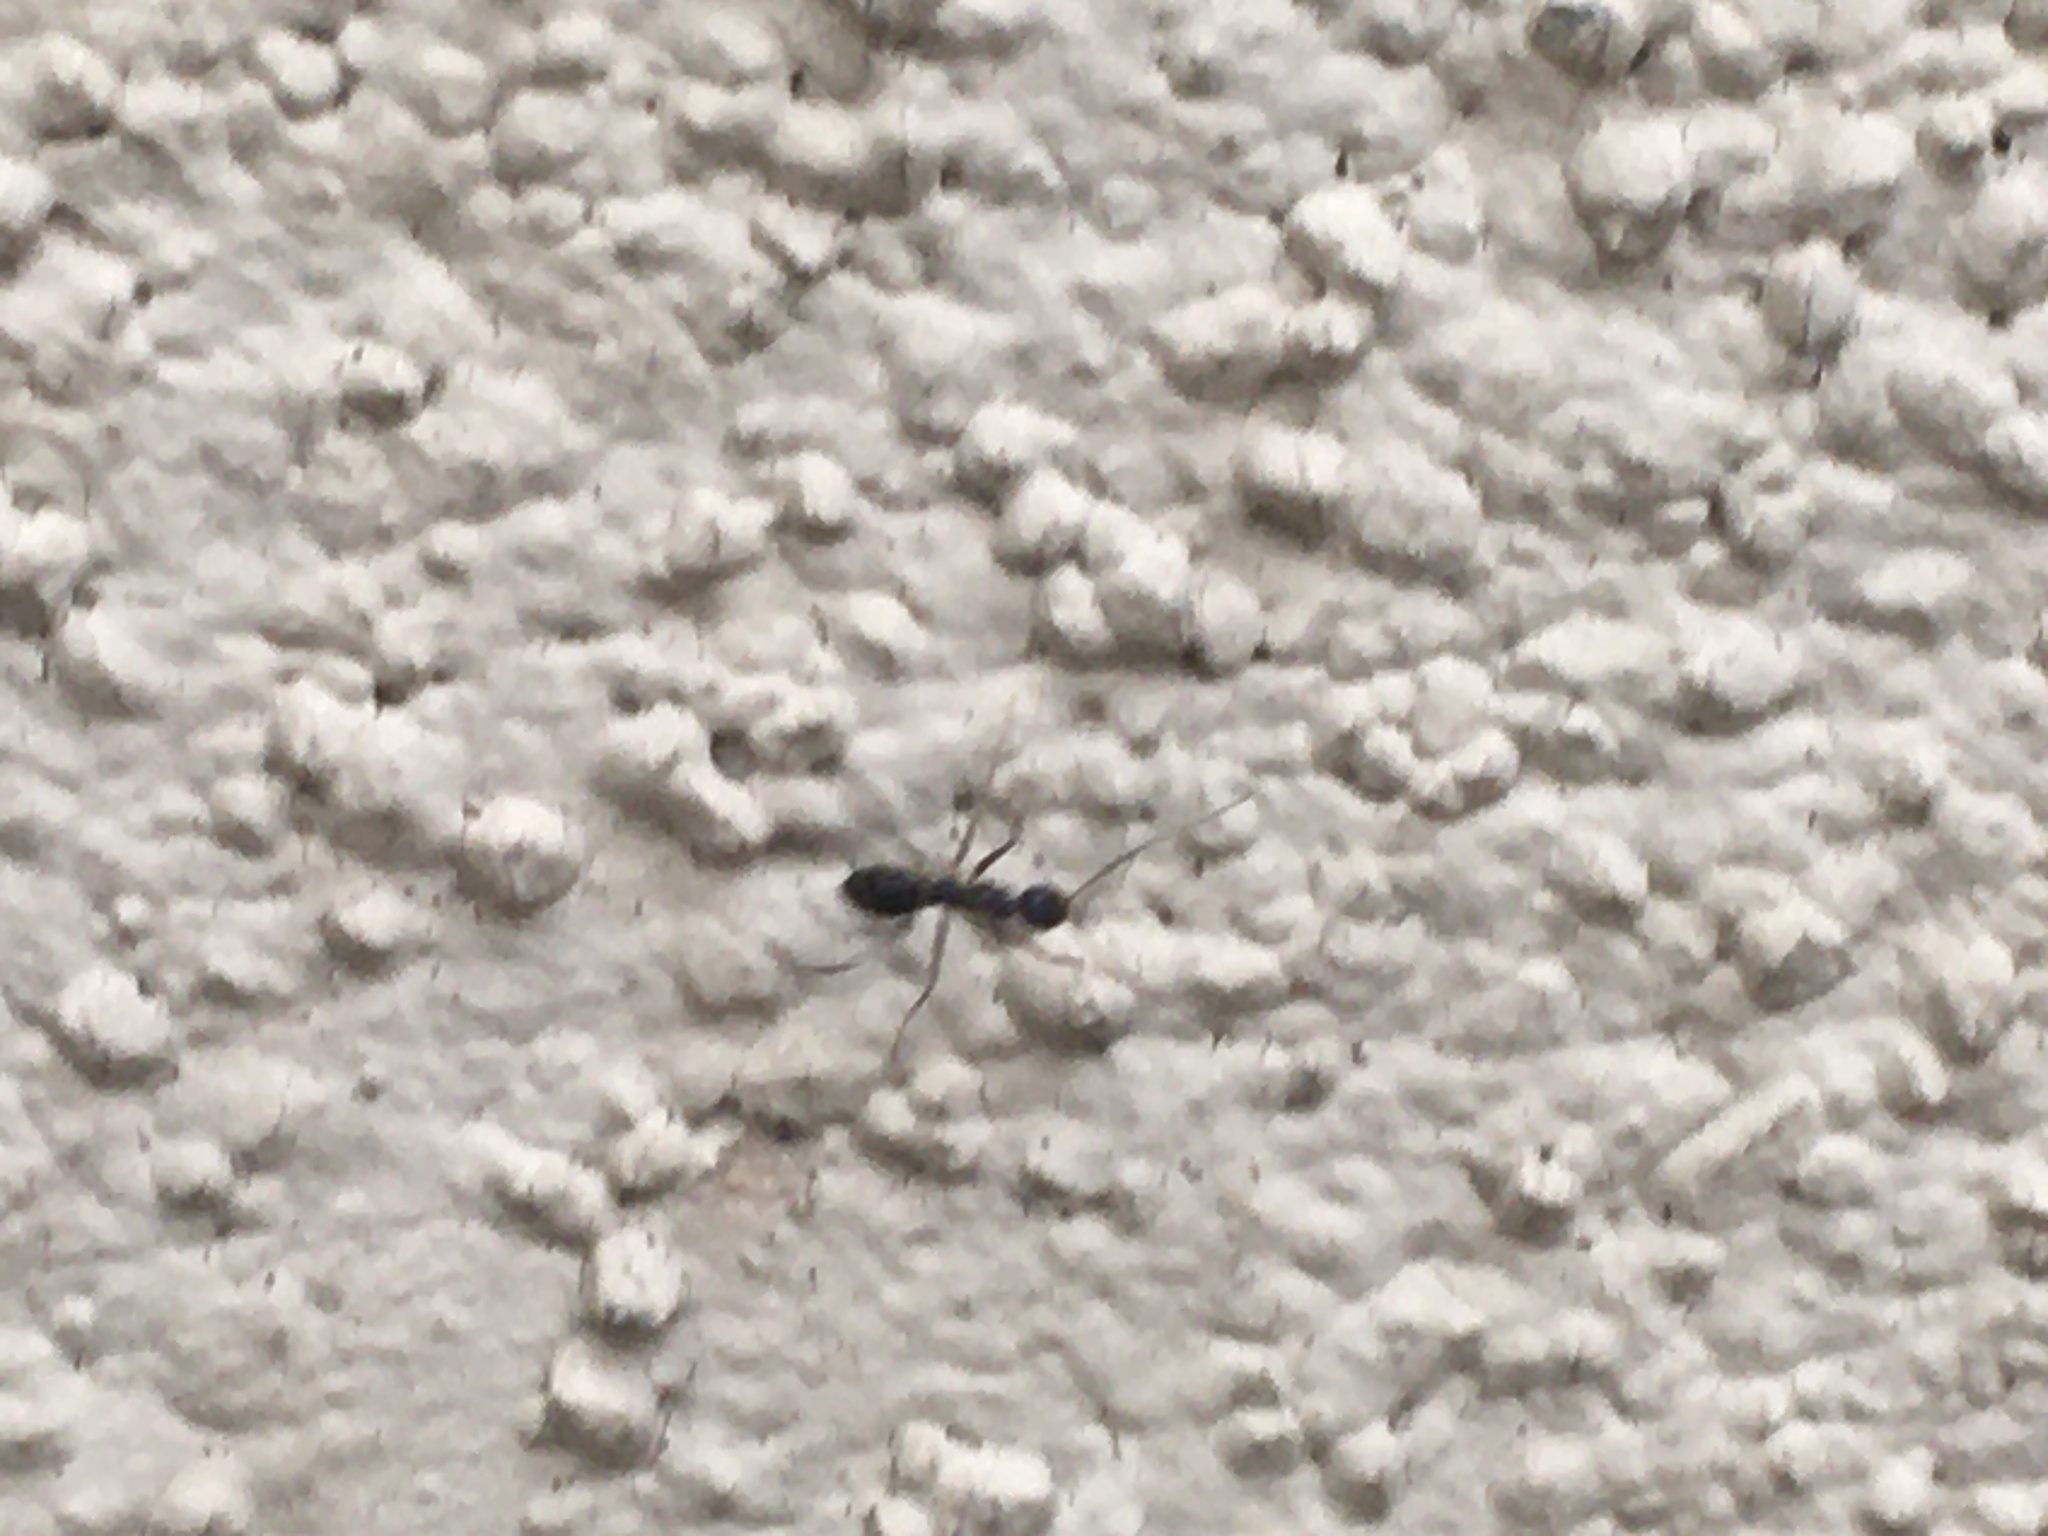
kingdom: Animalia
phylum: Arthropoda
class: Insecta
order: Hymenoptera
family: Formicidae
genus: Paratrechina
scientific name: Paratrechina longicornis
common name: Longhorned crazy ant
